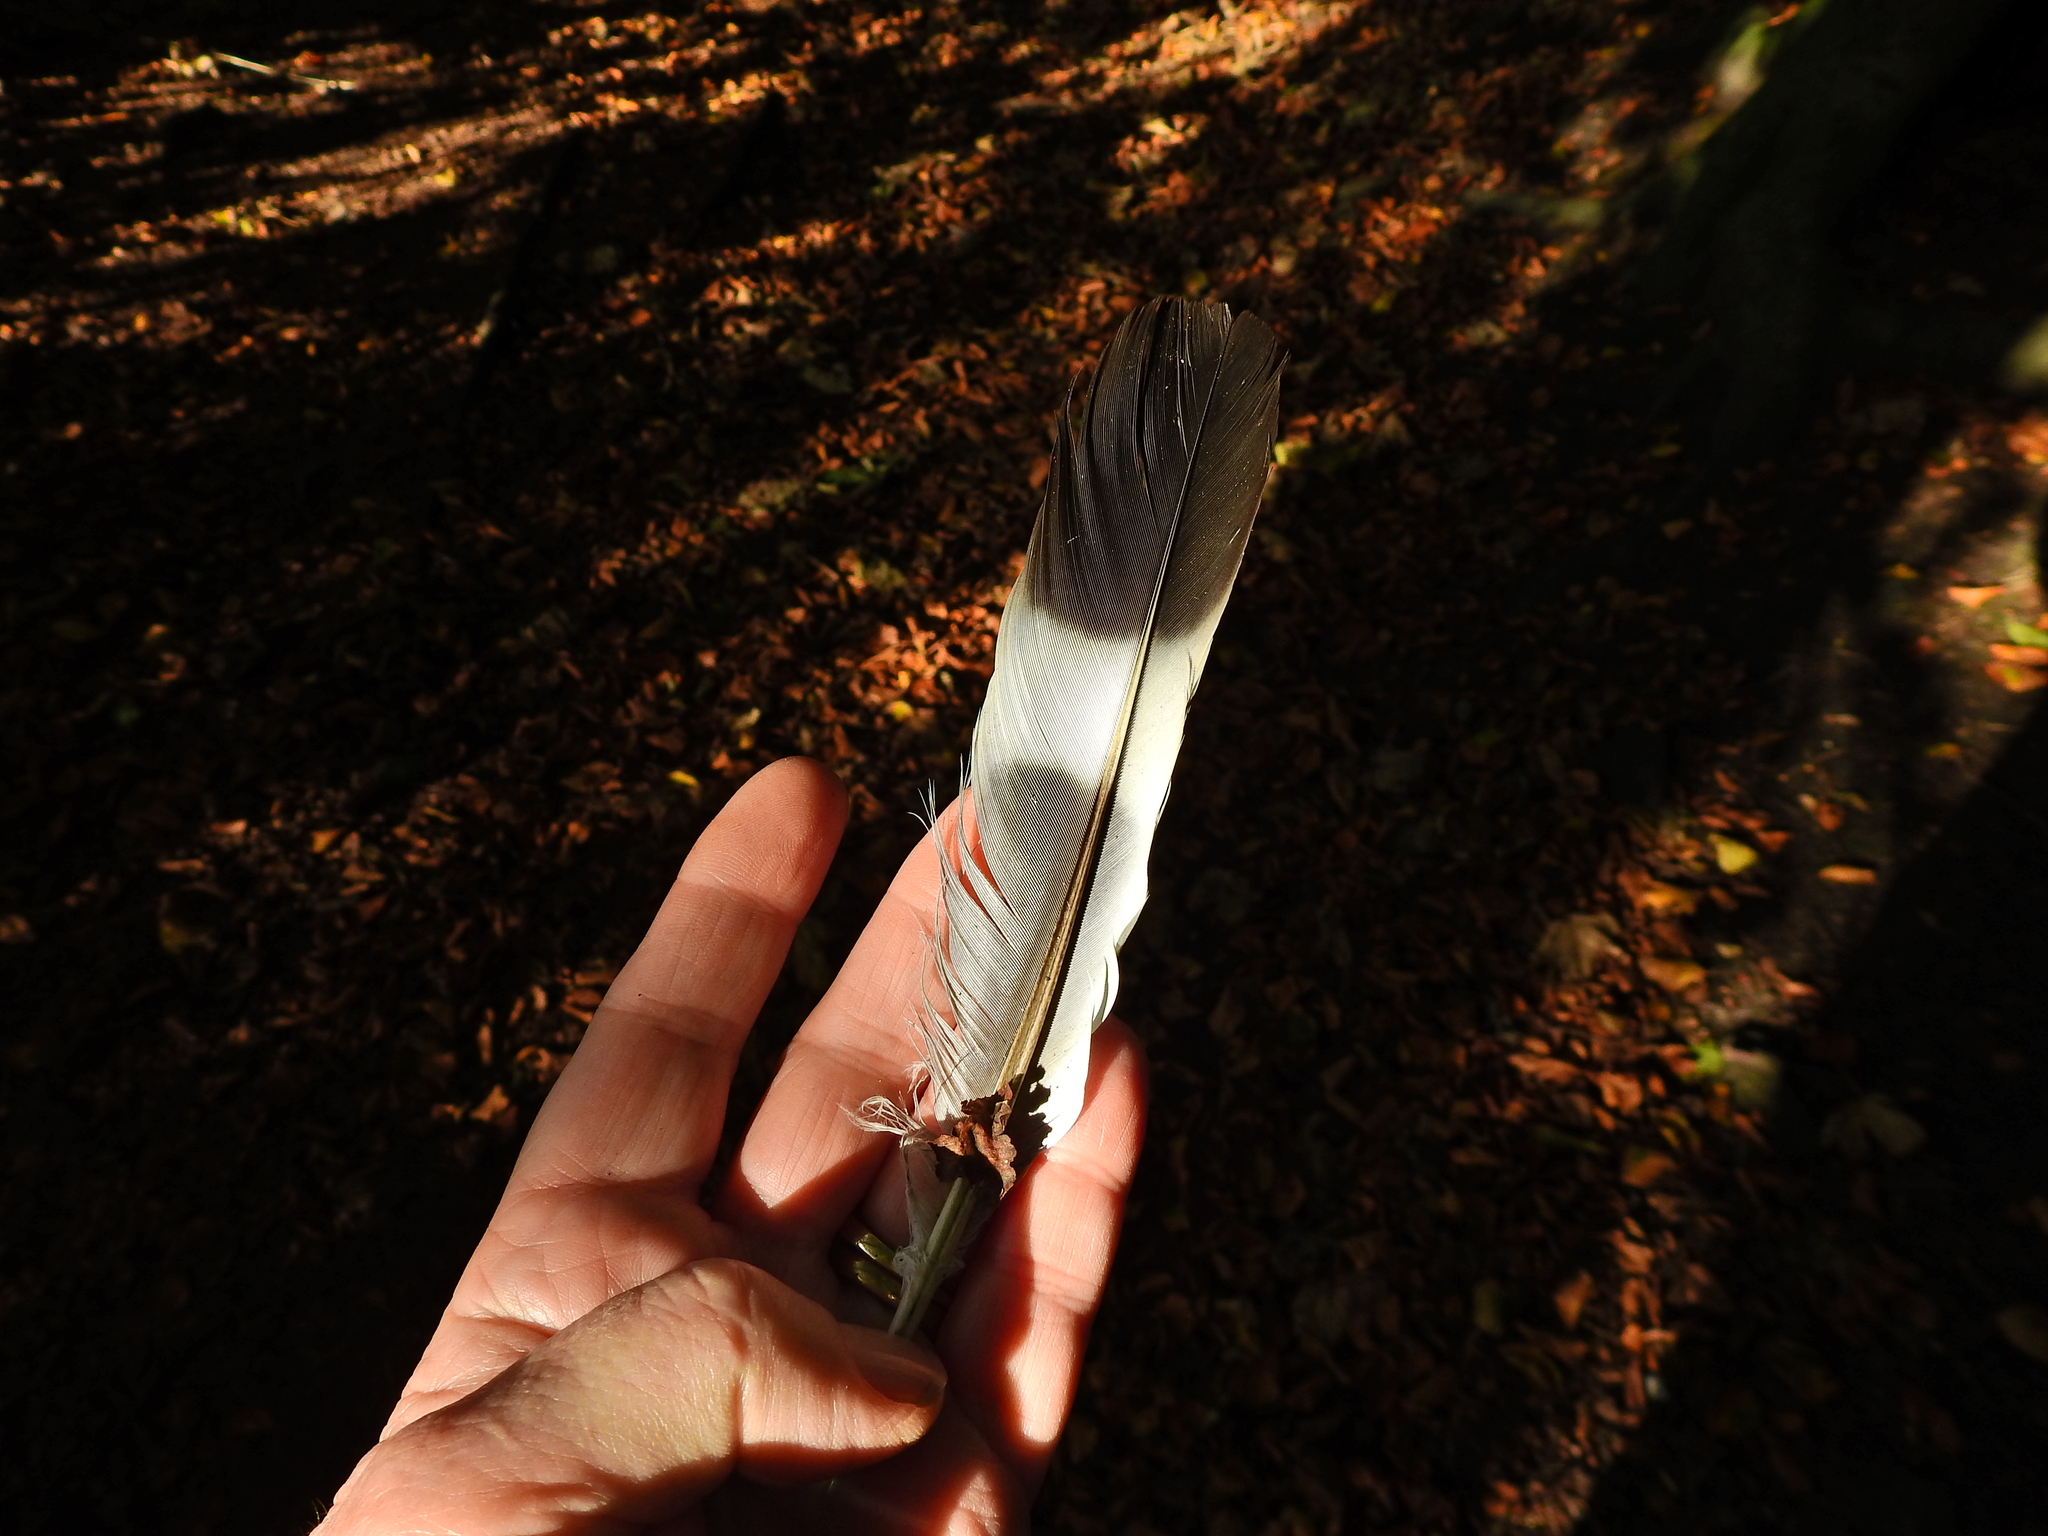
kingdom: Animalia
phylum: Chordata
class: Aves
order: Columbiformes
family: Columbidae
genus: Columba
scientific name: Columba palumbus
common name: Common wood pigeon
